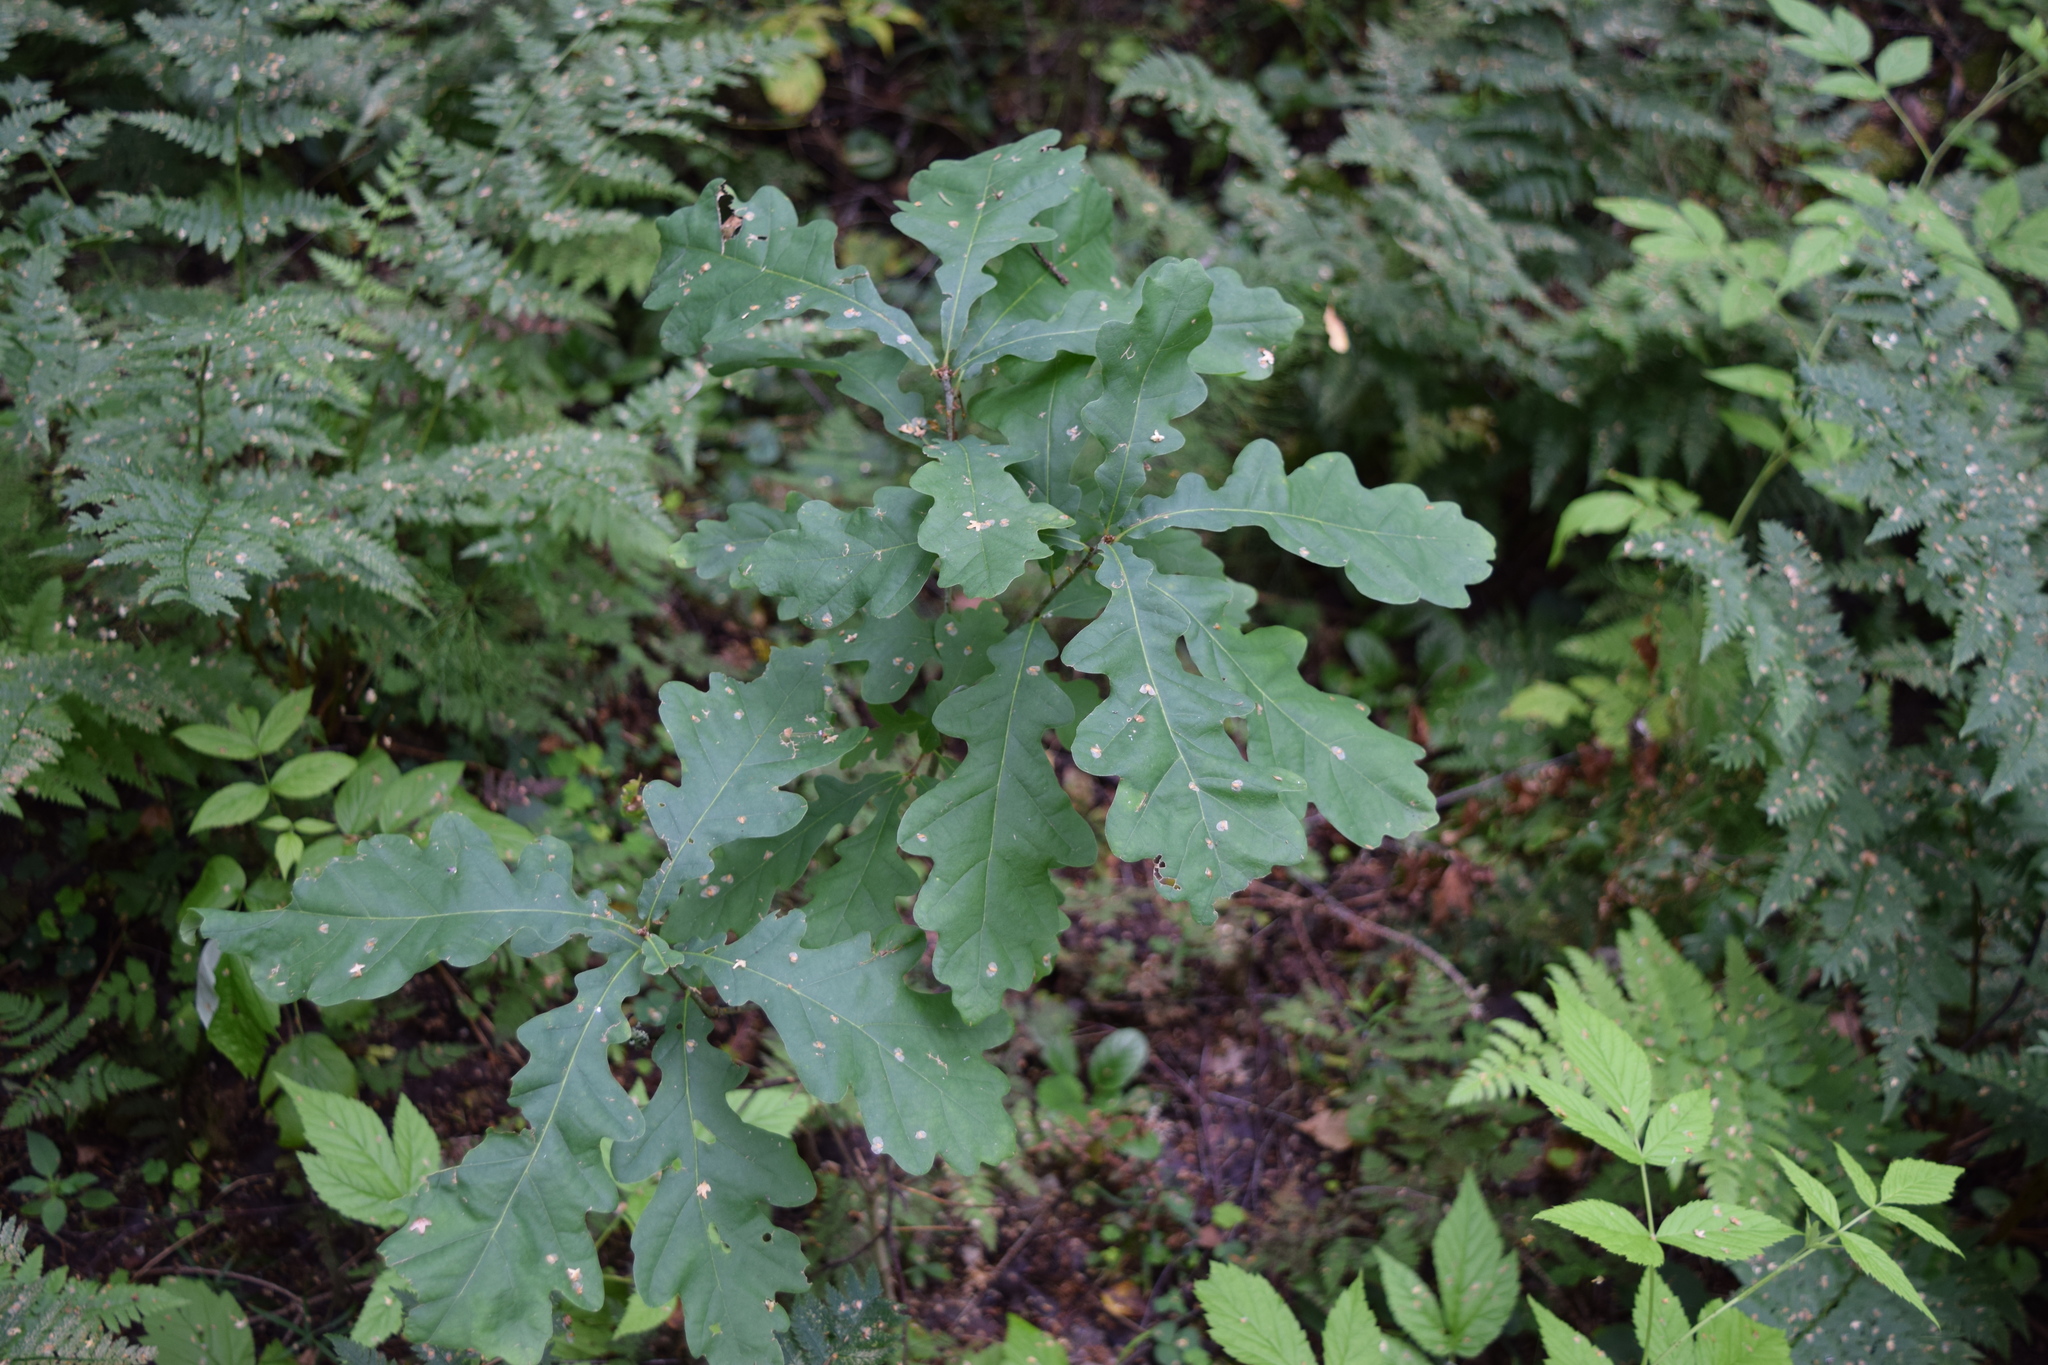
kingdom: Plantae
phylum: Tracheophyta
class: Magnoliopsida
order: Fagales
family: Fagaceae
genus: Quercus
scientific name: Quercus robur
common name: Pedunculate oak
